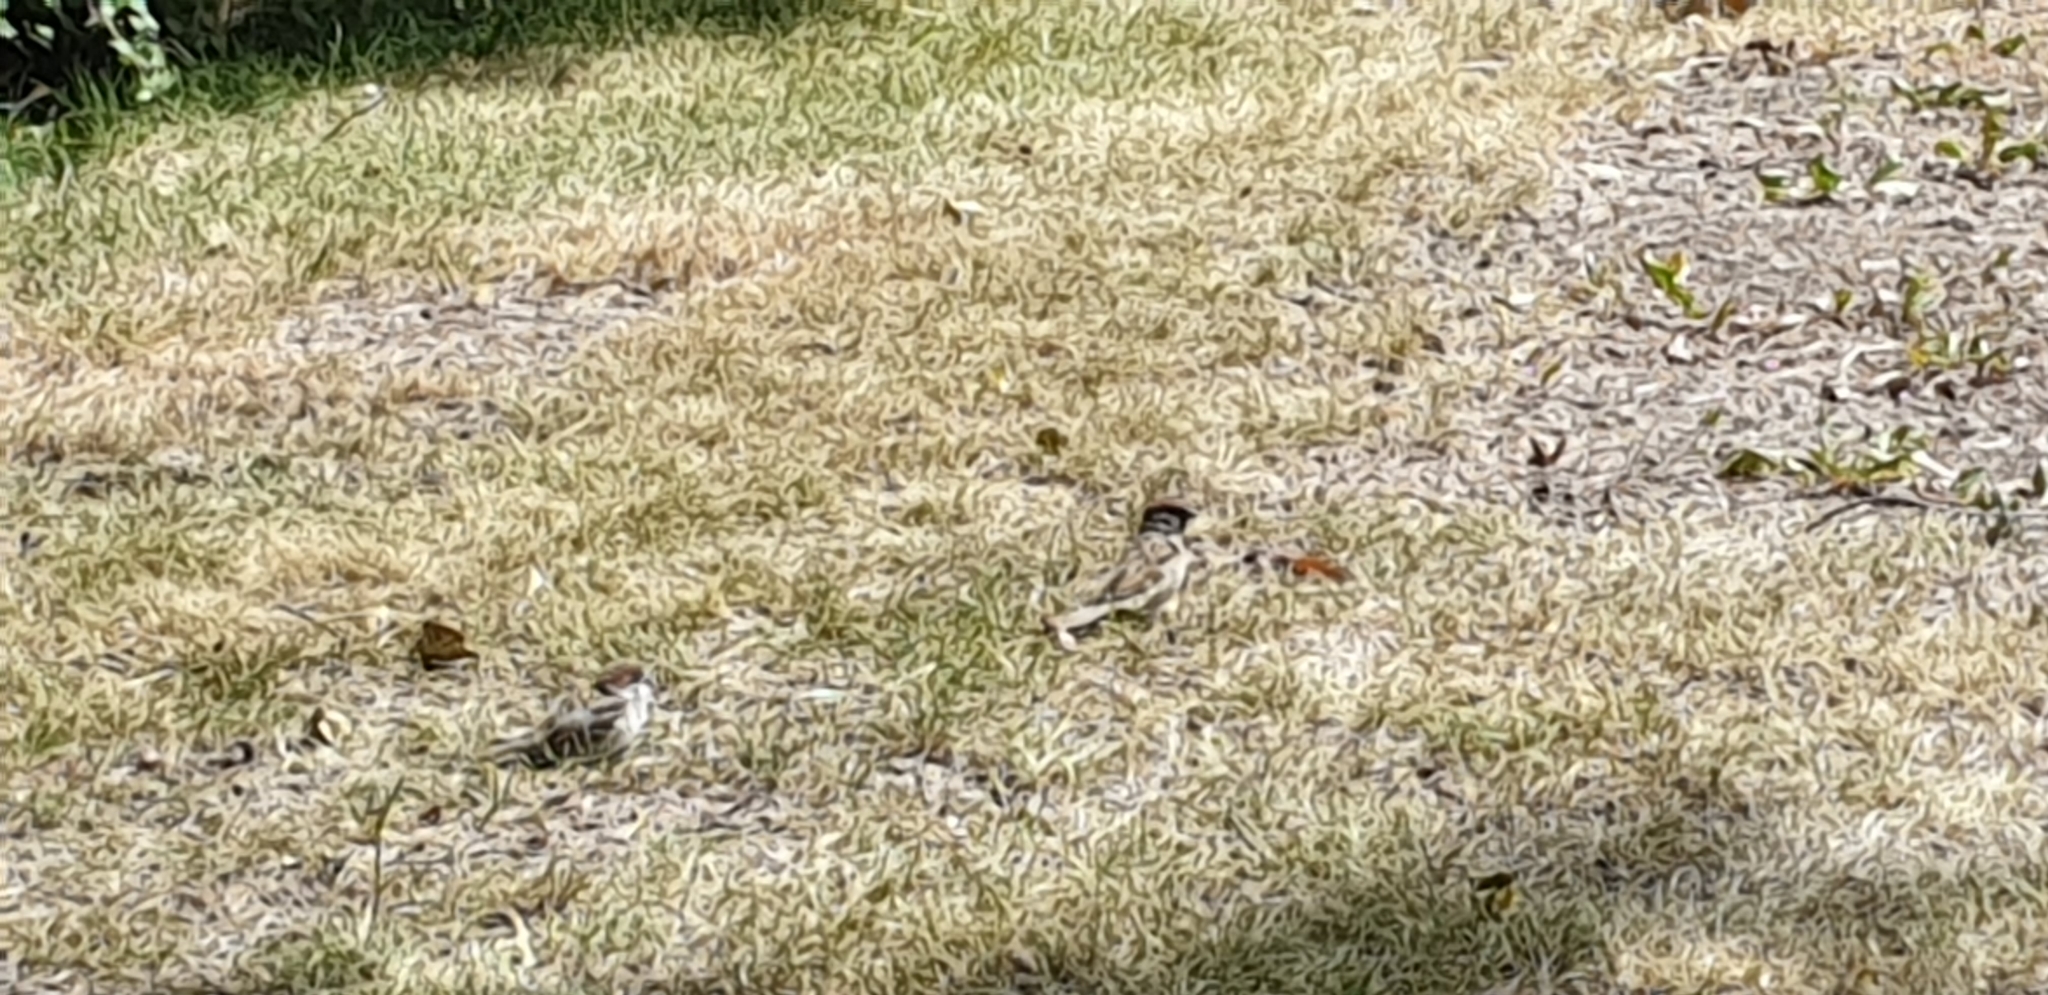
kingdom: Animalia
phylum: Chordata
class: Aves
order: Passeriformes
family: Passeridae
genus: Passer
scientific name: Passer montanus
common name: Eurasian tree sparrow
